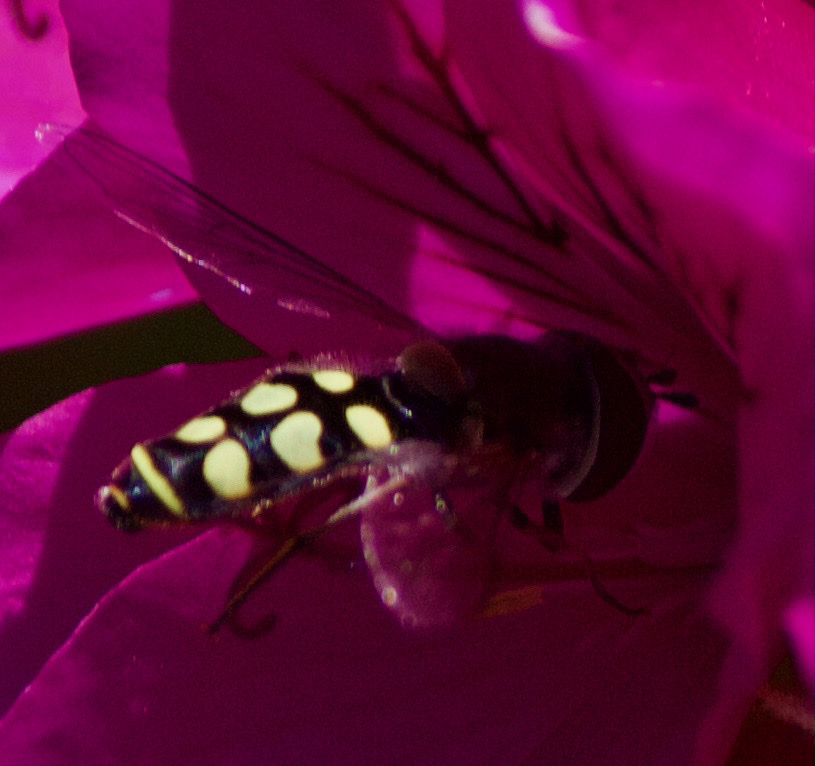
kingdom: Animalia
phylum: Arthropoda
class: Insecta
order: Diptera
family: Syrphidae
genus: Austroscaeva
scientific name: Austroscaeva occidentalis
